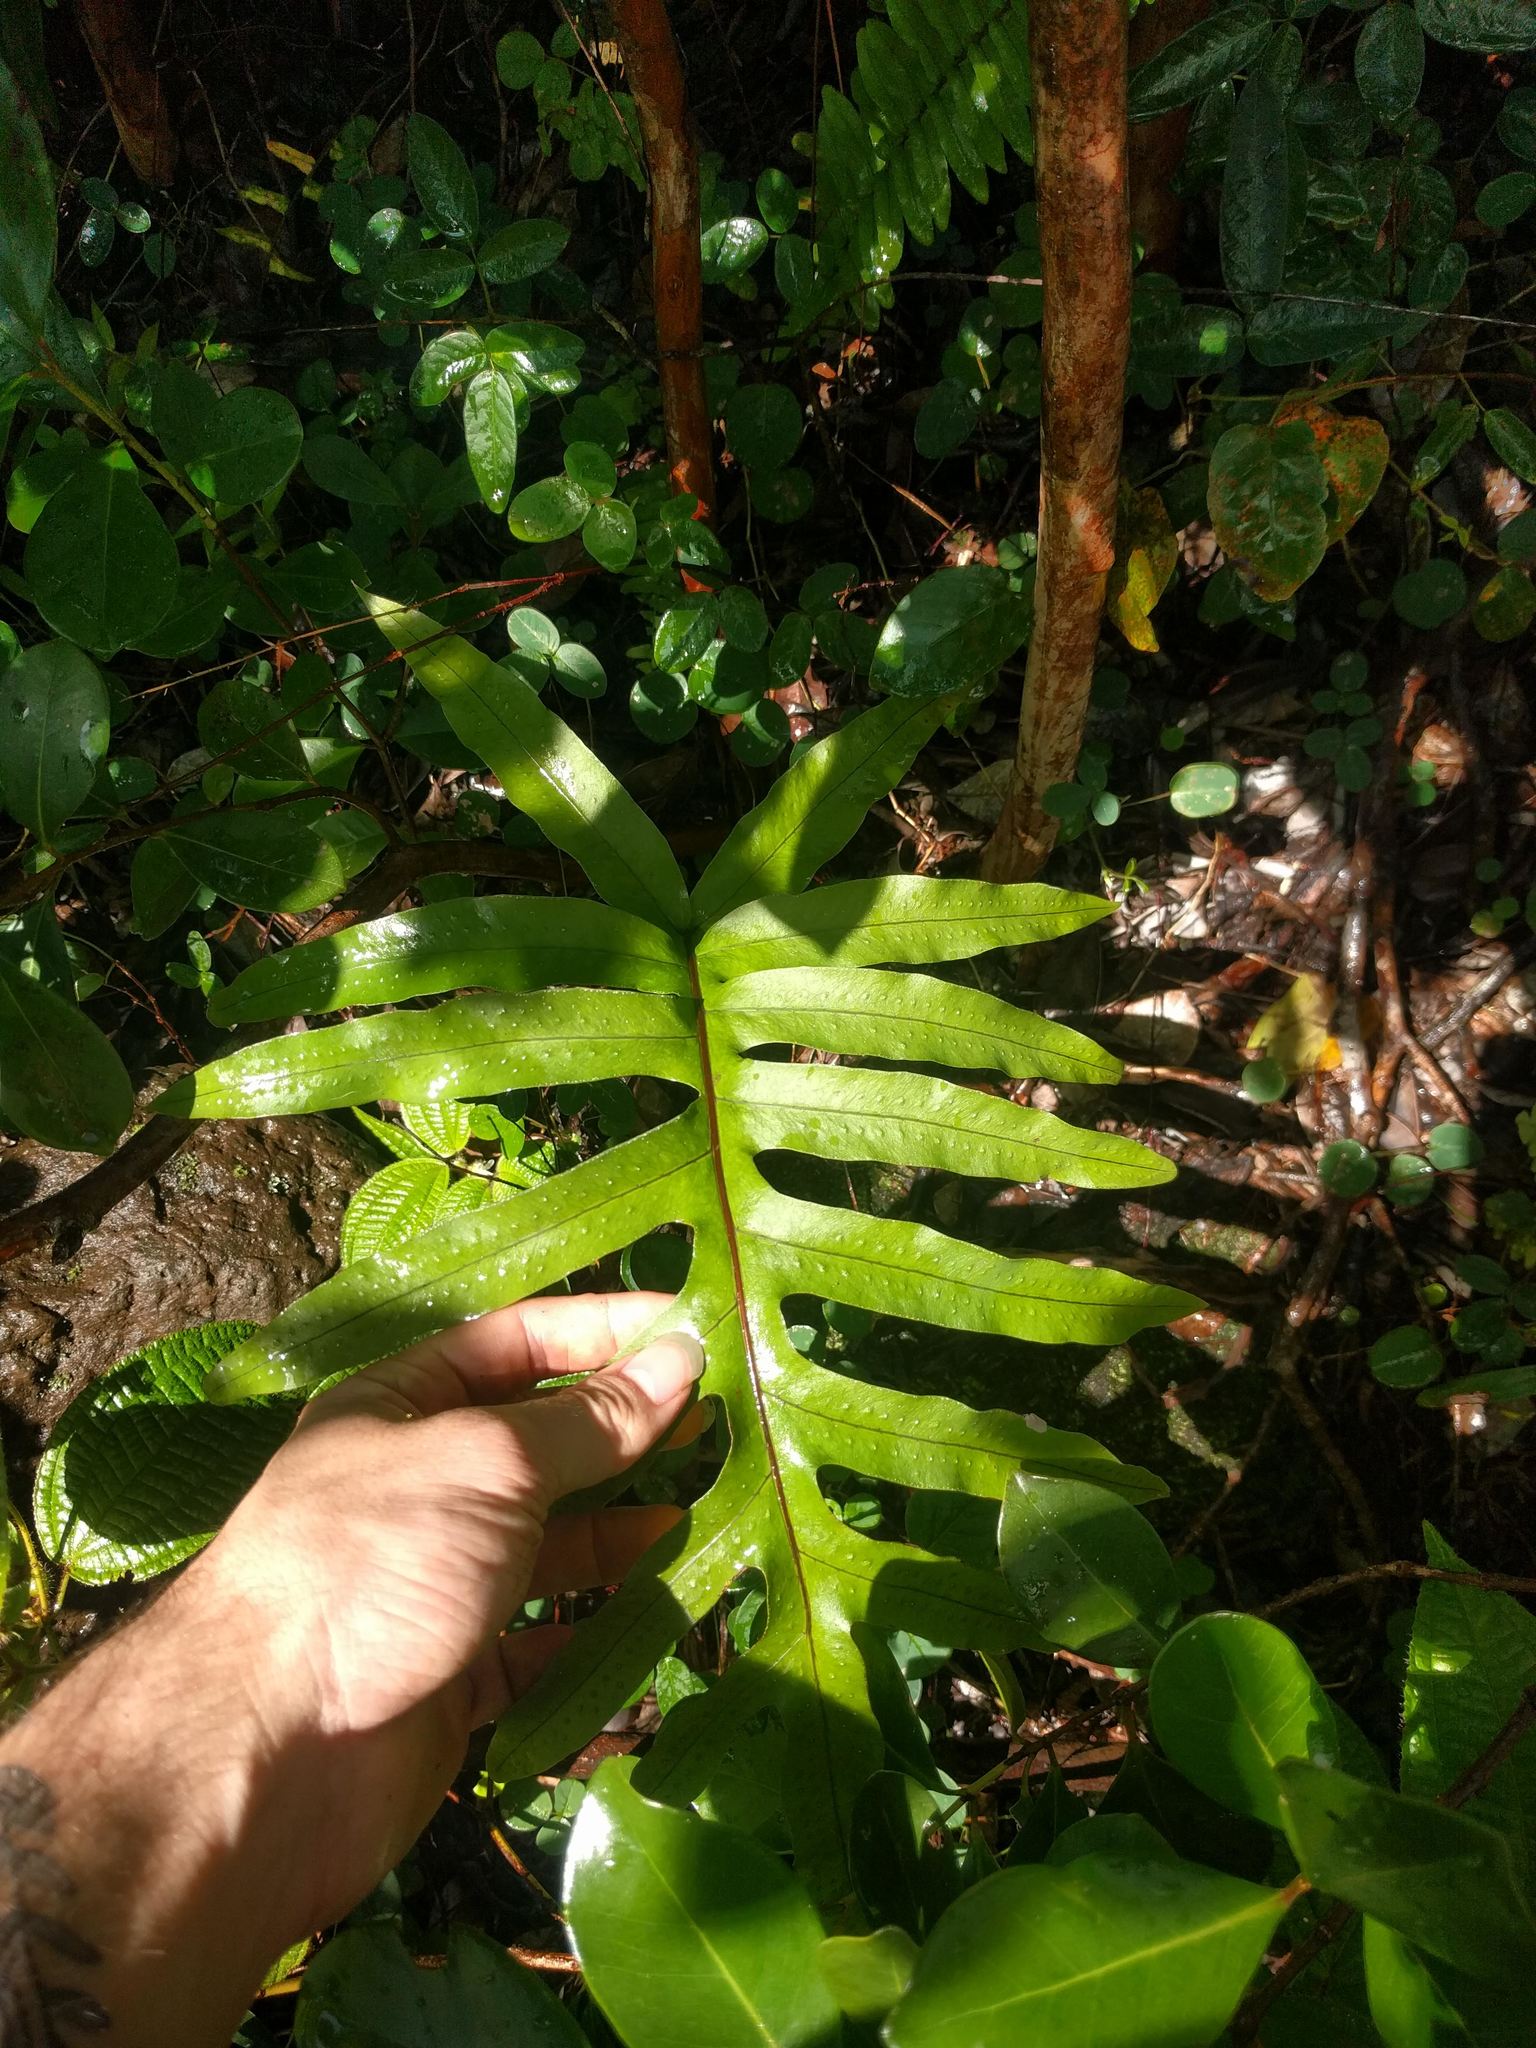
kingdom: Plantae
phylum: Tracheophyta
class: Polypodiopsida
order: Polypodiales
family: Polypodiaceae
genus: Phlebodium
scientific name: Phlebodium aureum
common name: Gold-foot fern
